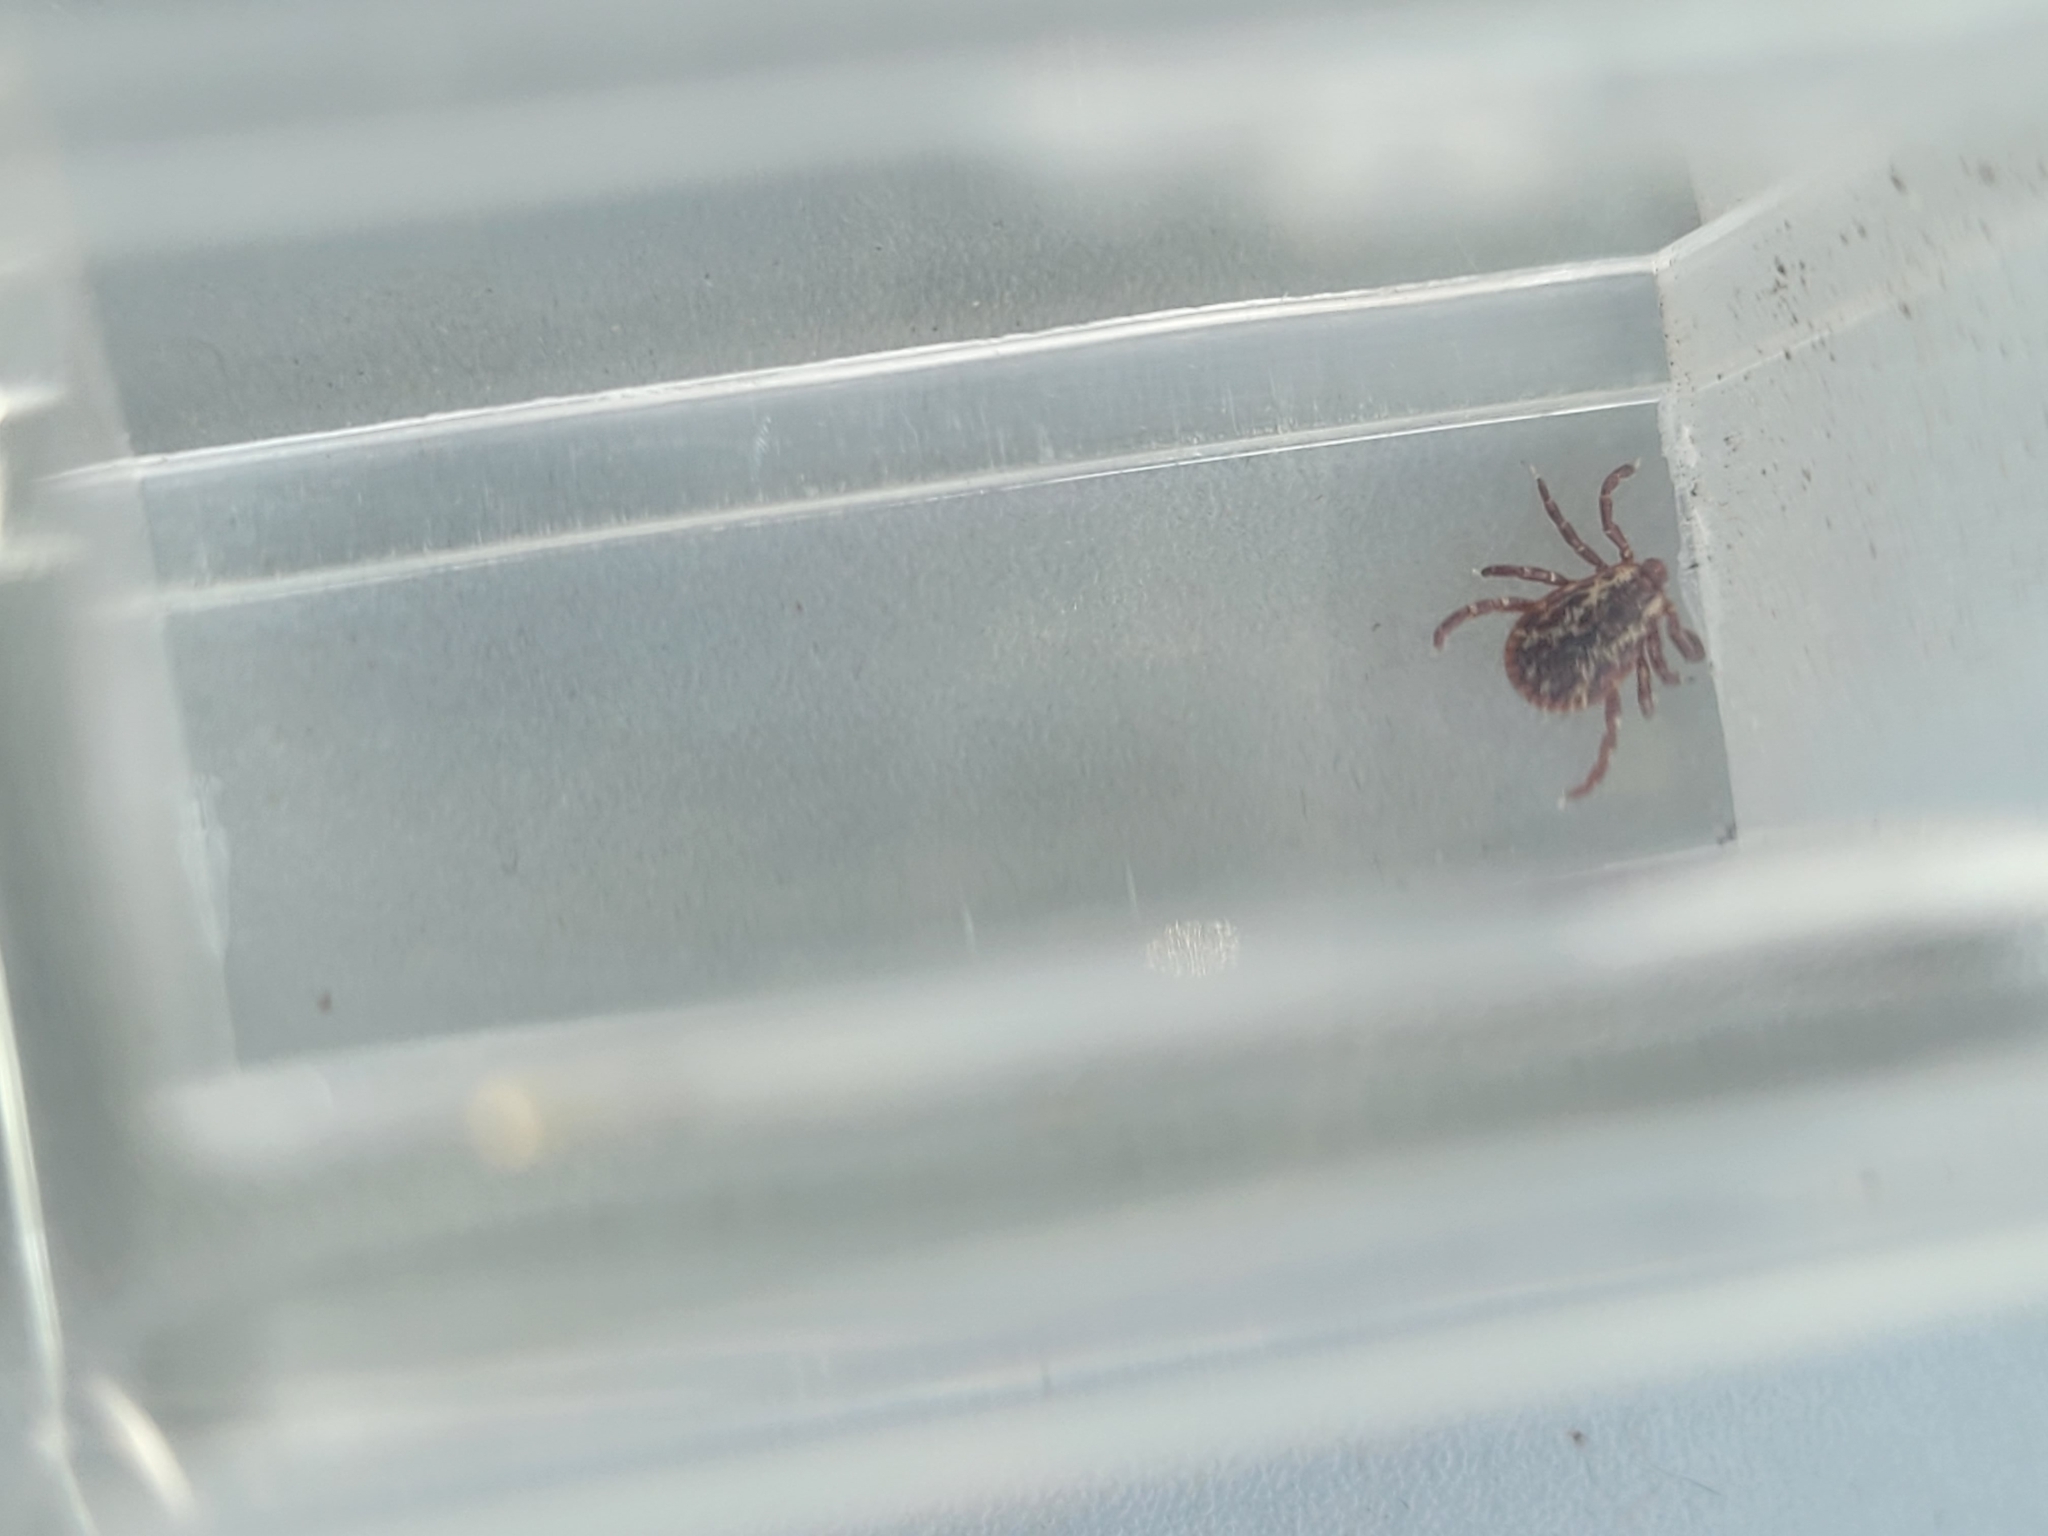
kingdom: Animalia
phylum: Arthropoda
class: Arachnida
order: Ixodida
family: Ixodidae
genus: Dermacentor
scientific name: Dermacentor variabilis
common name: American dog tick
